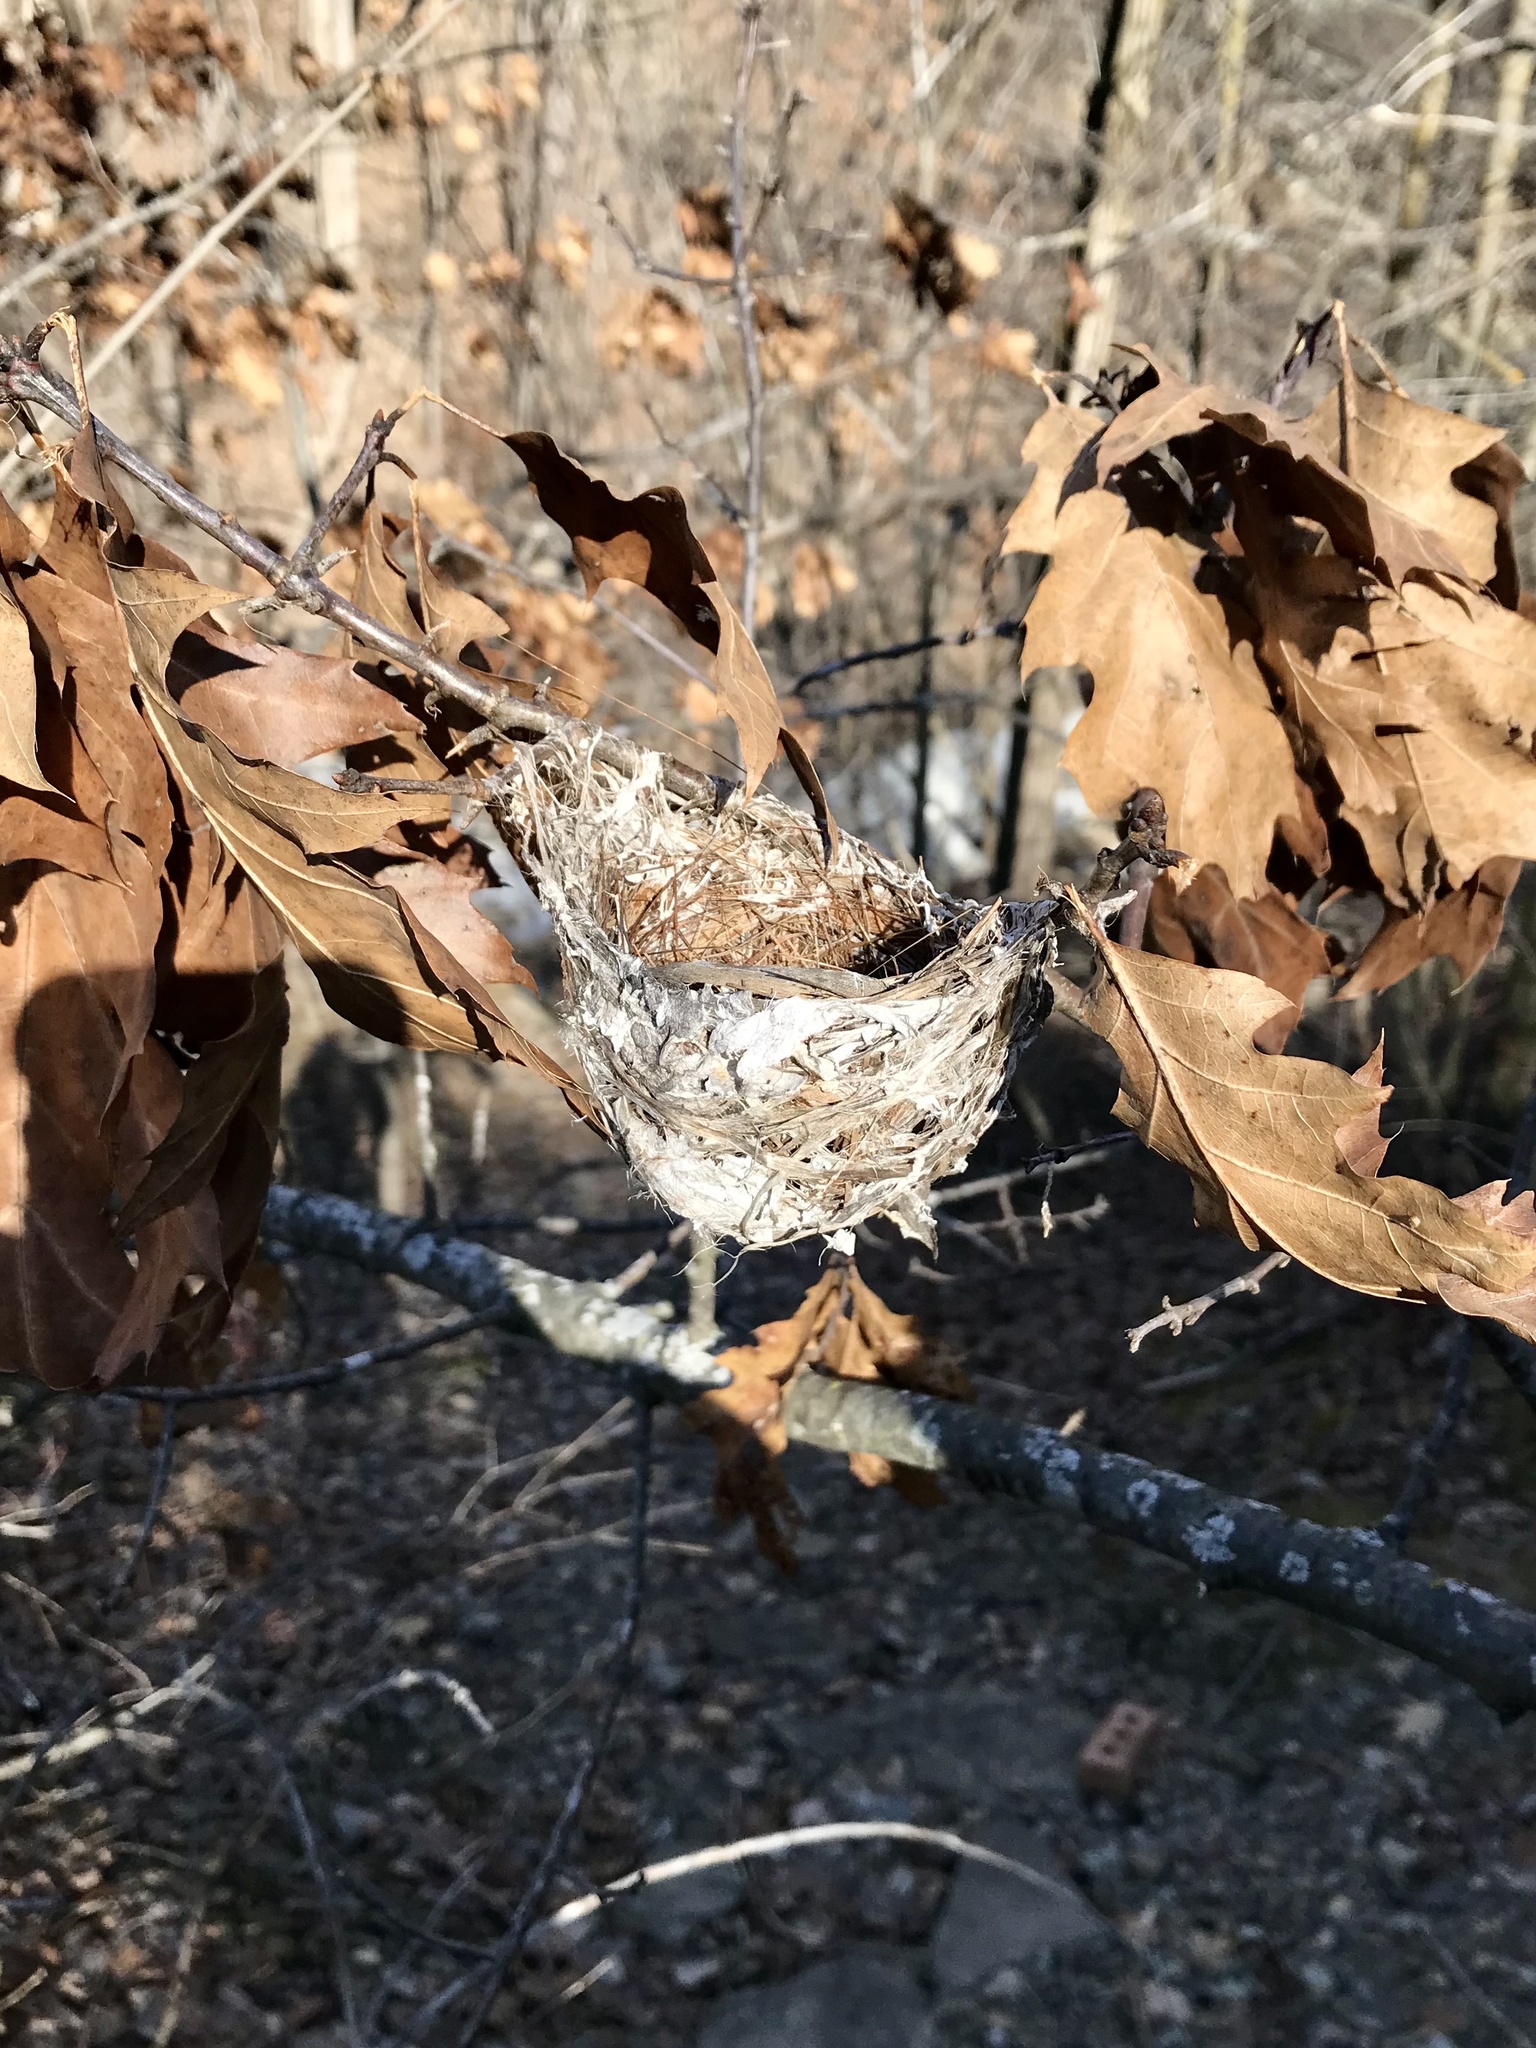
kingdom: Animalia
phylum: Chordata
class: Aves
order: Passeriformes
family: Vireonidae
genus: Vireo
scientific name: Vireo olivaceus
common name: Red-eyed vireo
